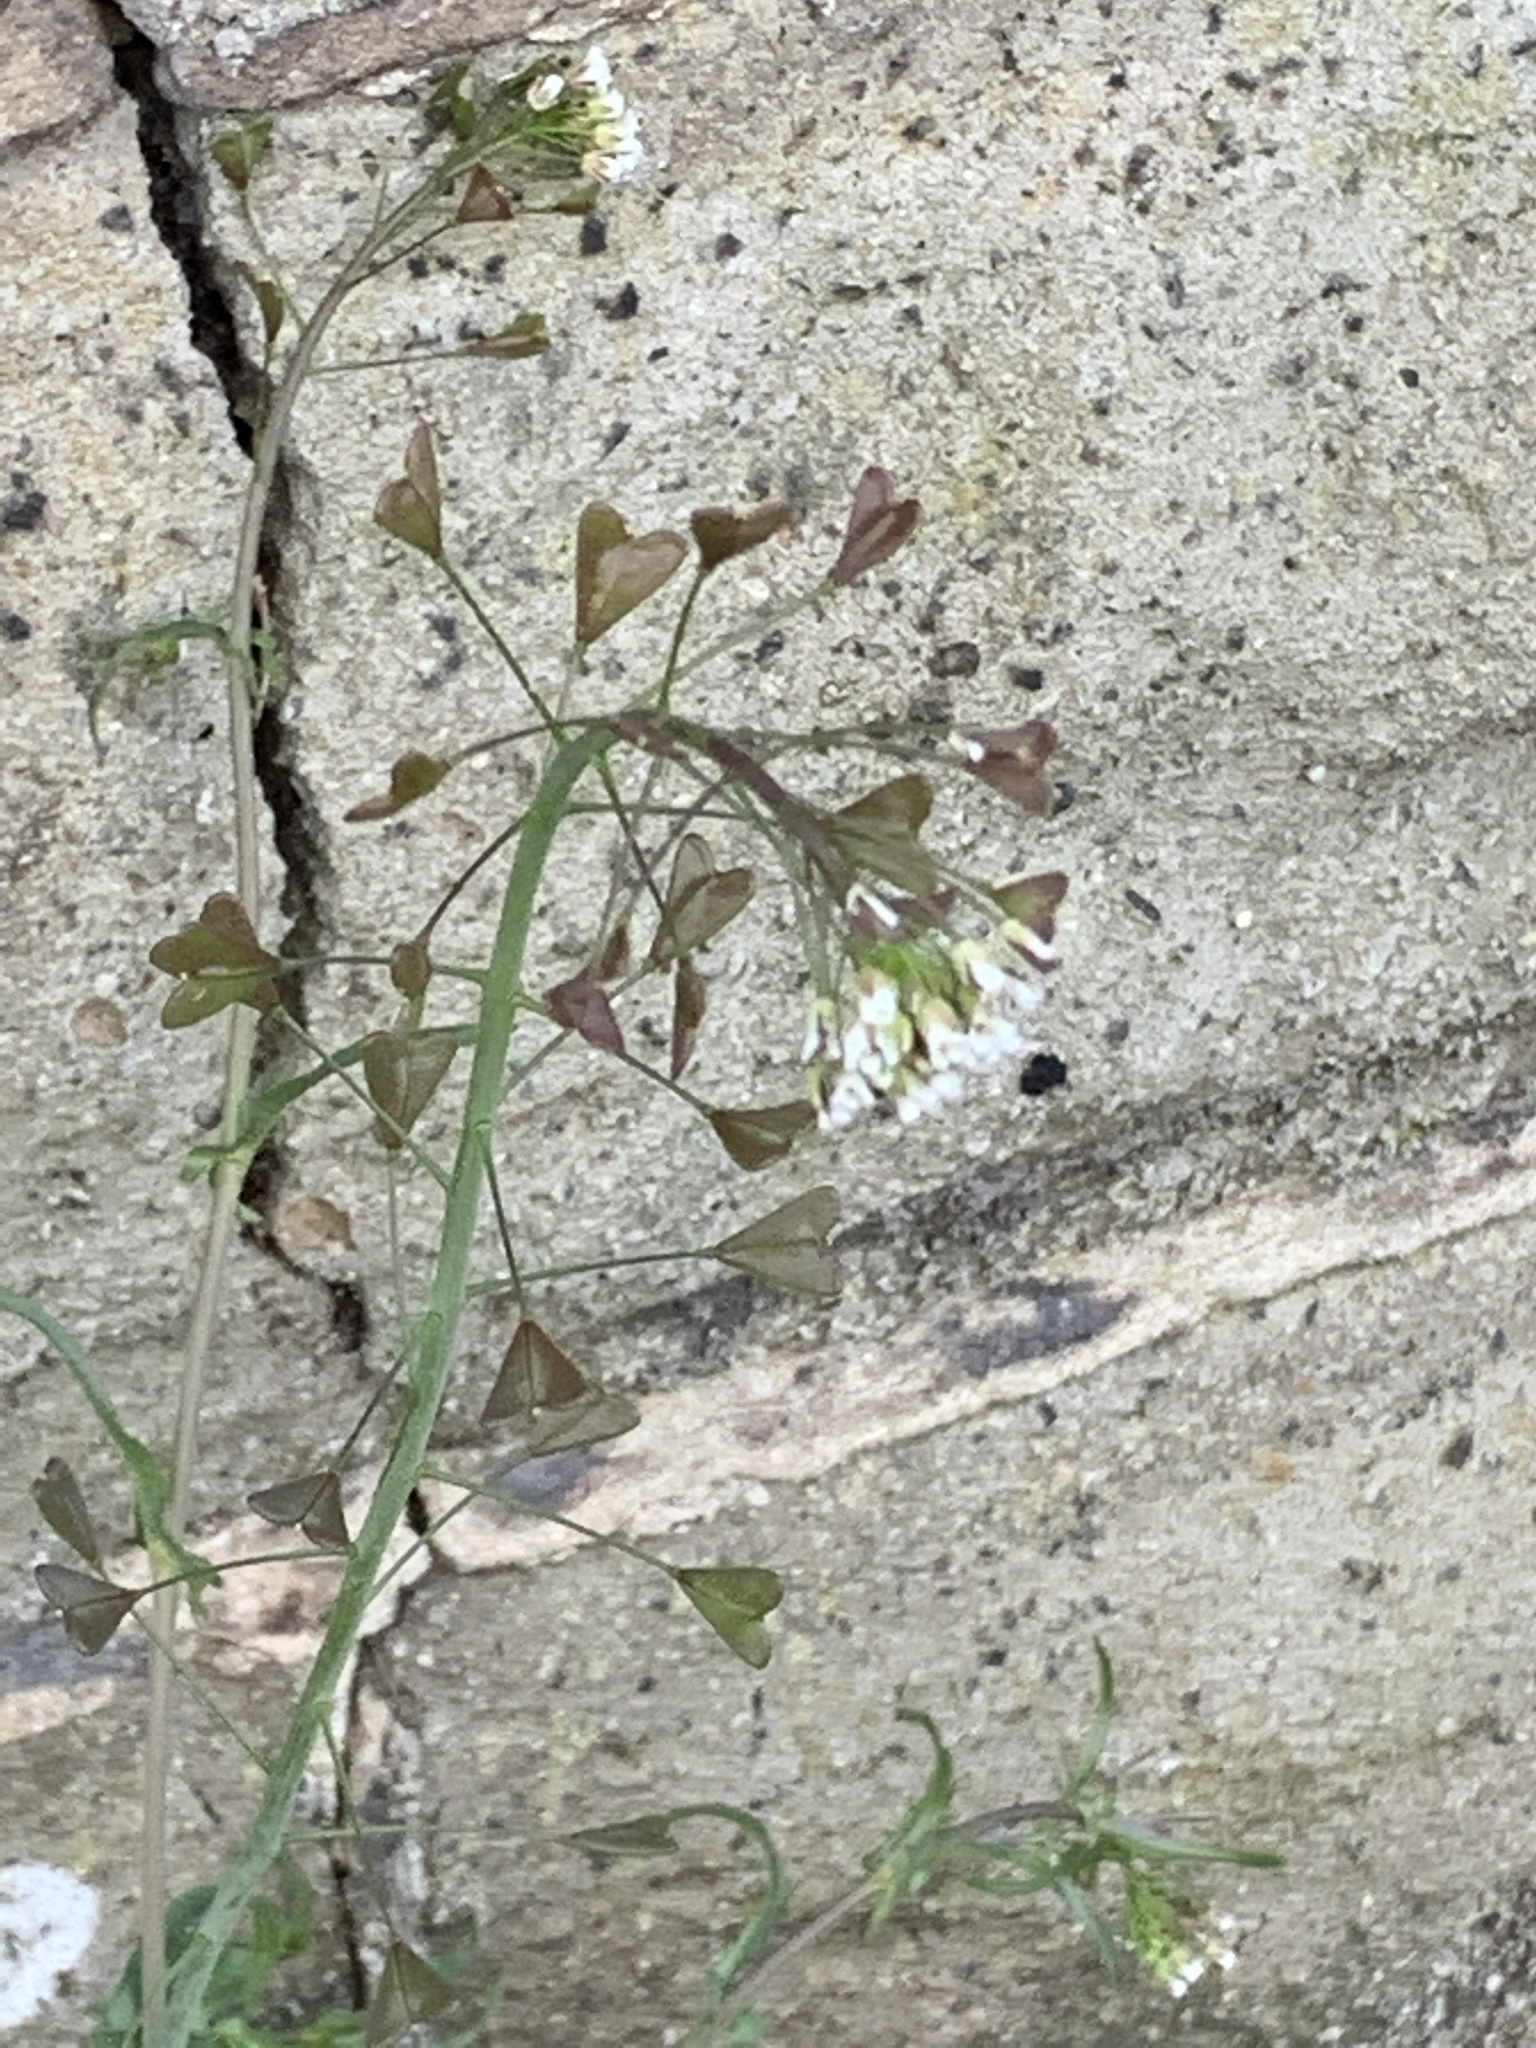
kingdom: Plantae
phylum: Tracheophyta
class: Magnoliopsida
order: Brassicales
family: Brassicaceae
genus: Capsella
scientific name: Capsella bursa-pastoris
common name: Shepherd's purse
